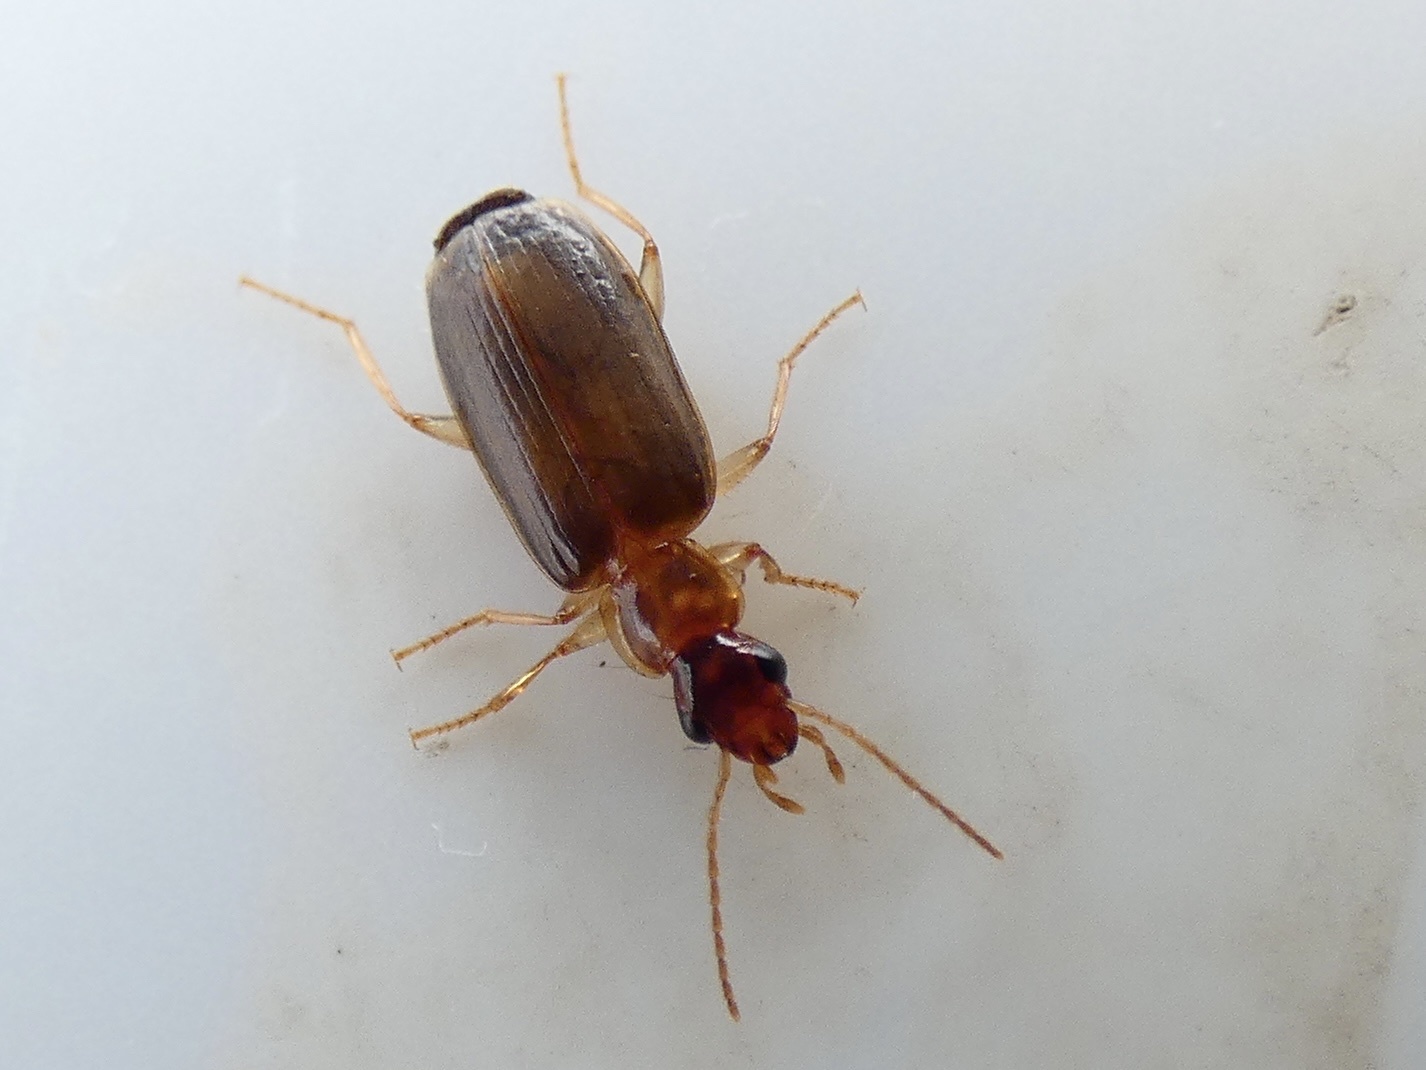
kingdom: Animalia
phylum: Arthropoda
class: Insecta
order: Coleoptera
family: Carabidae
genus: Paradromius
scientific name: Paradromius linearis
